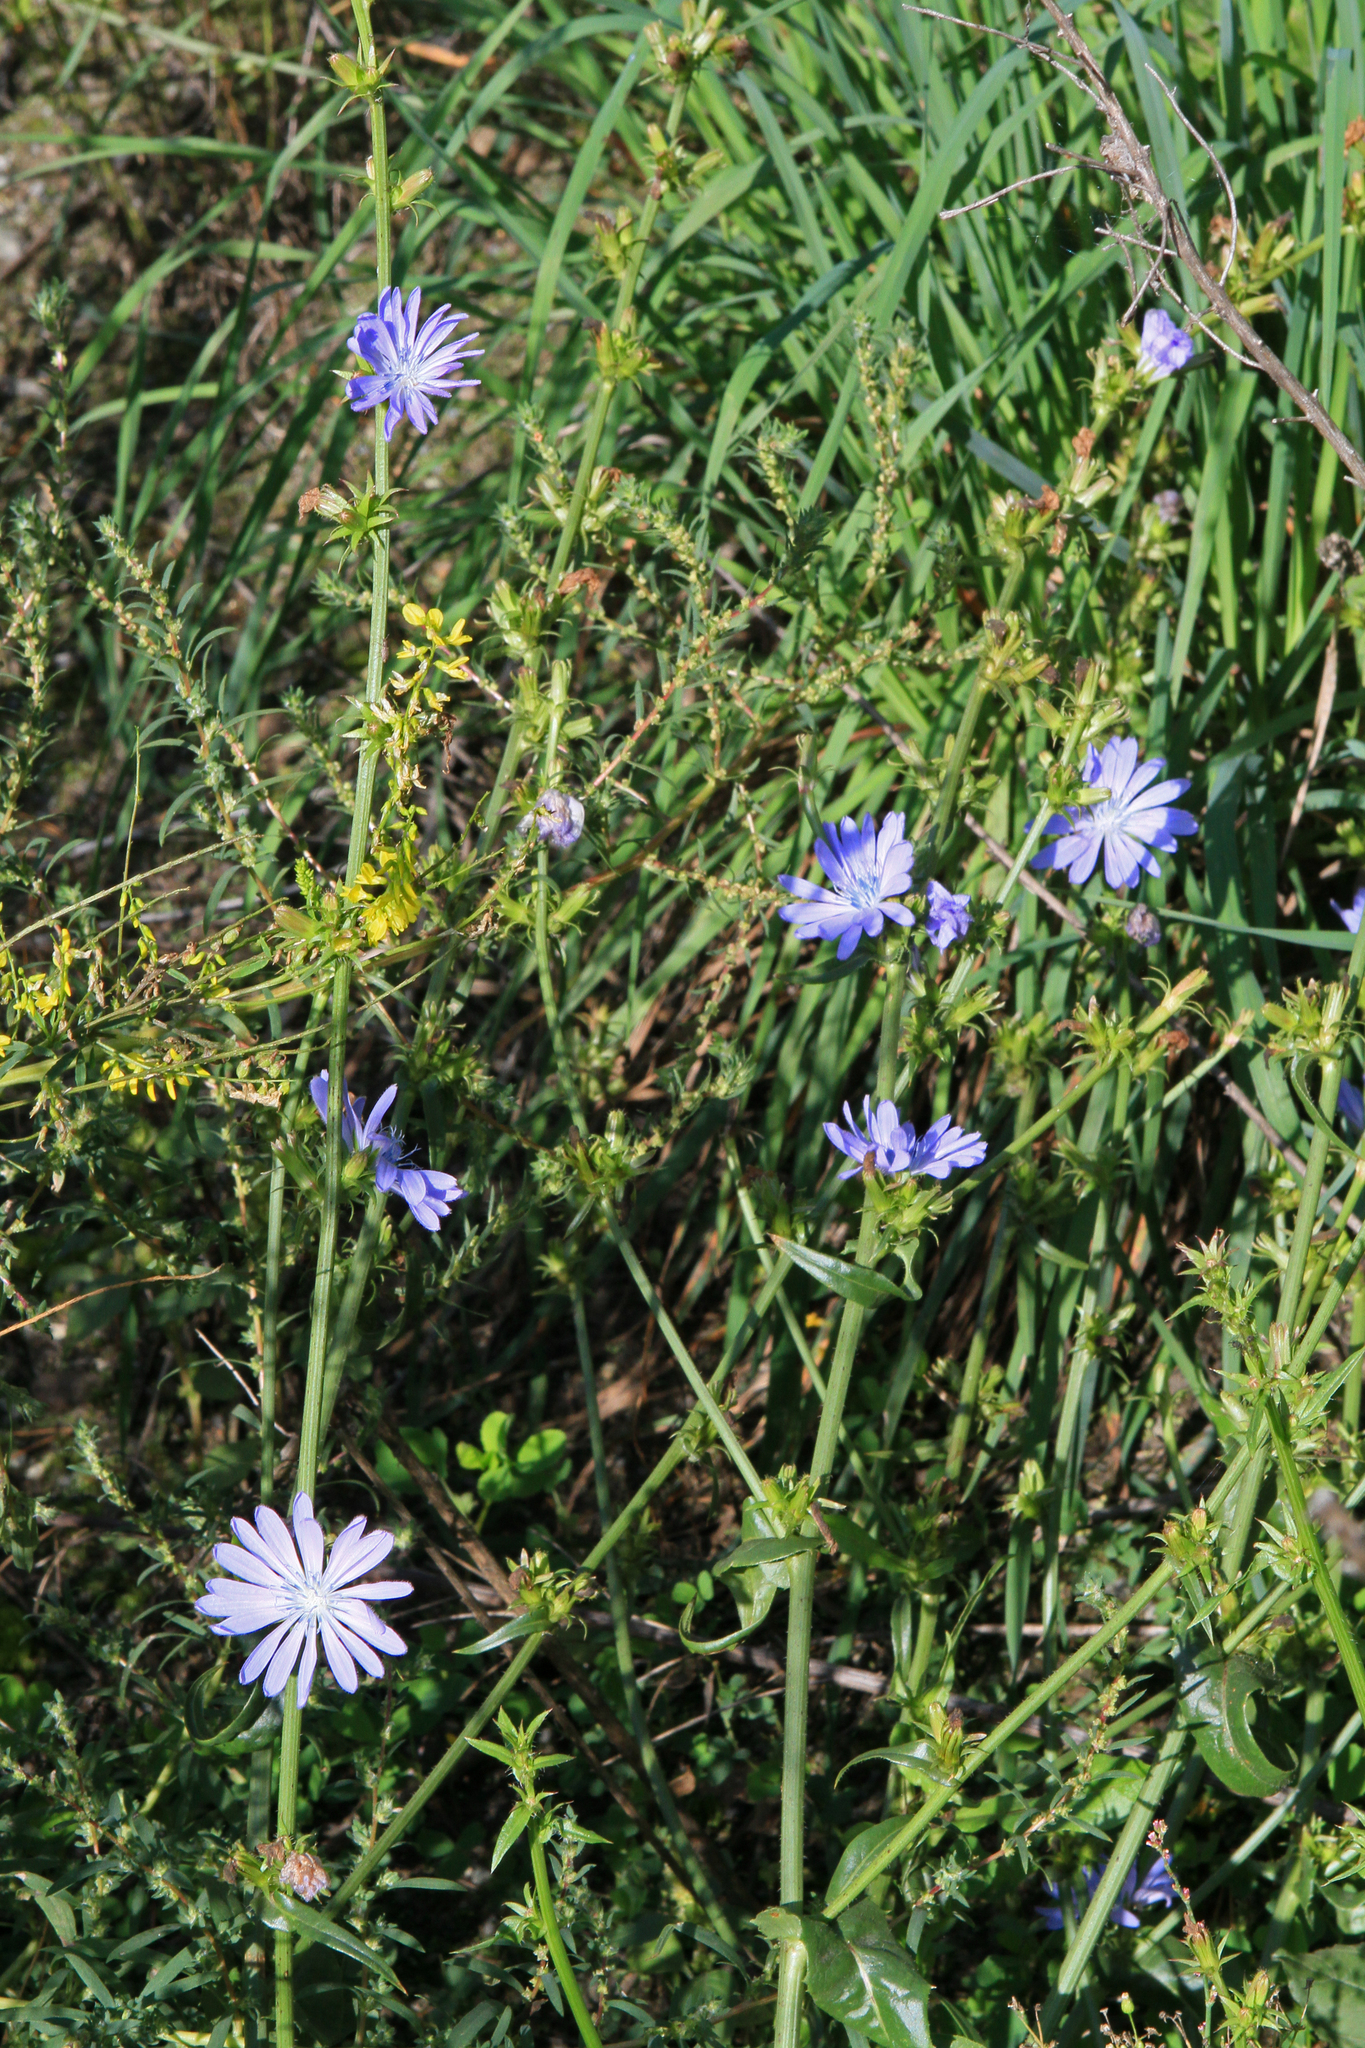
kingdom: Plantae
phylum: Tracheophyta
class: Magnoliopsida
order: Asterales
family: Asteraceae
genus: Cichorium
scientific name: Cichorium intybus
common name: Chicory
